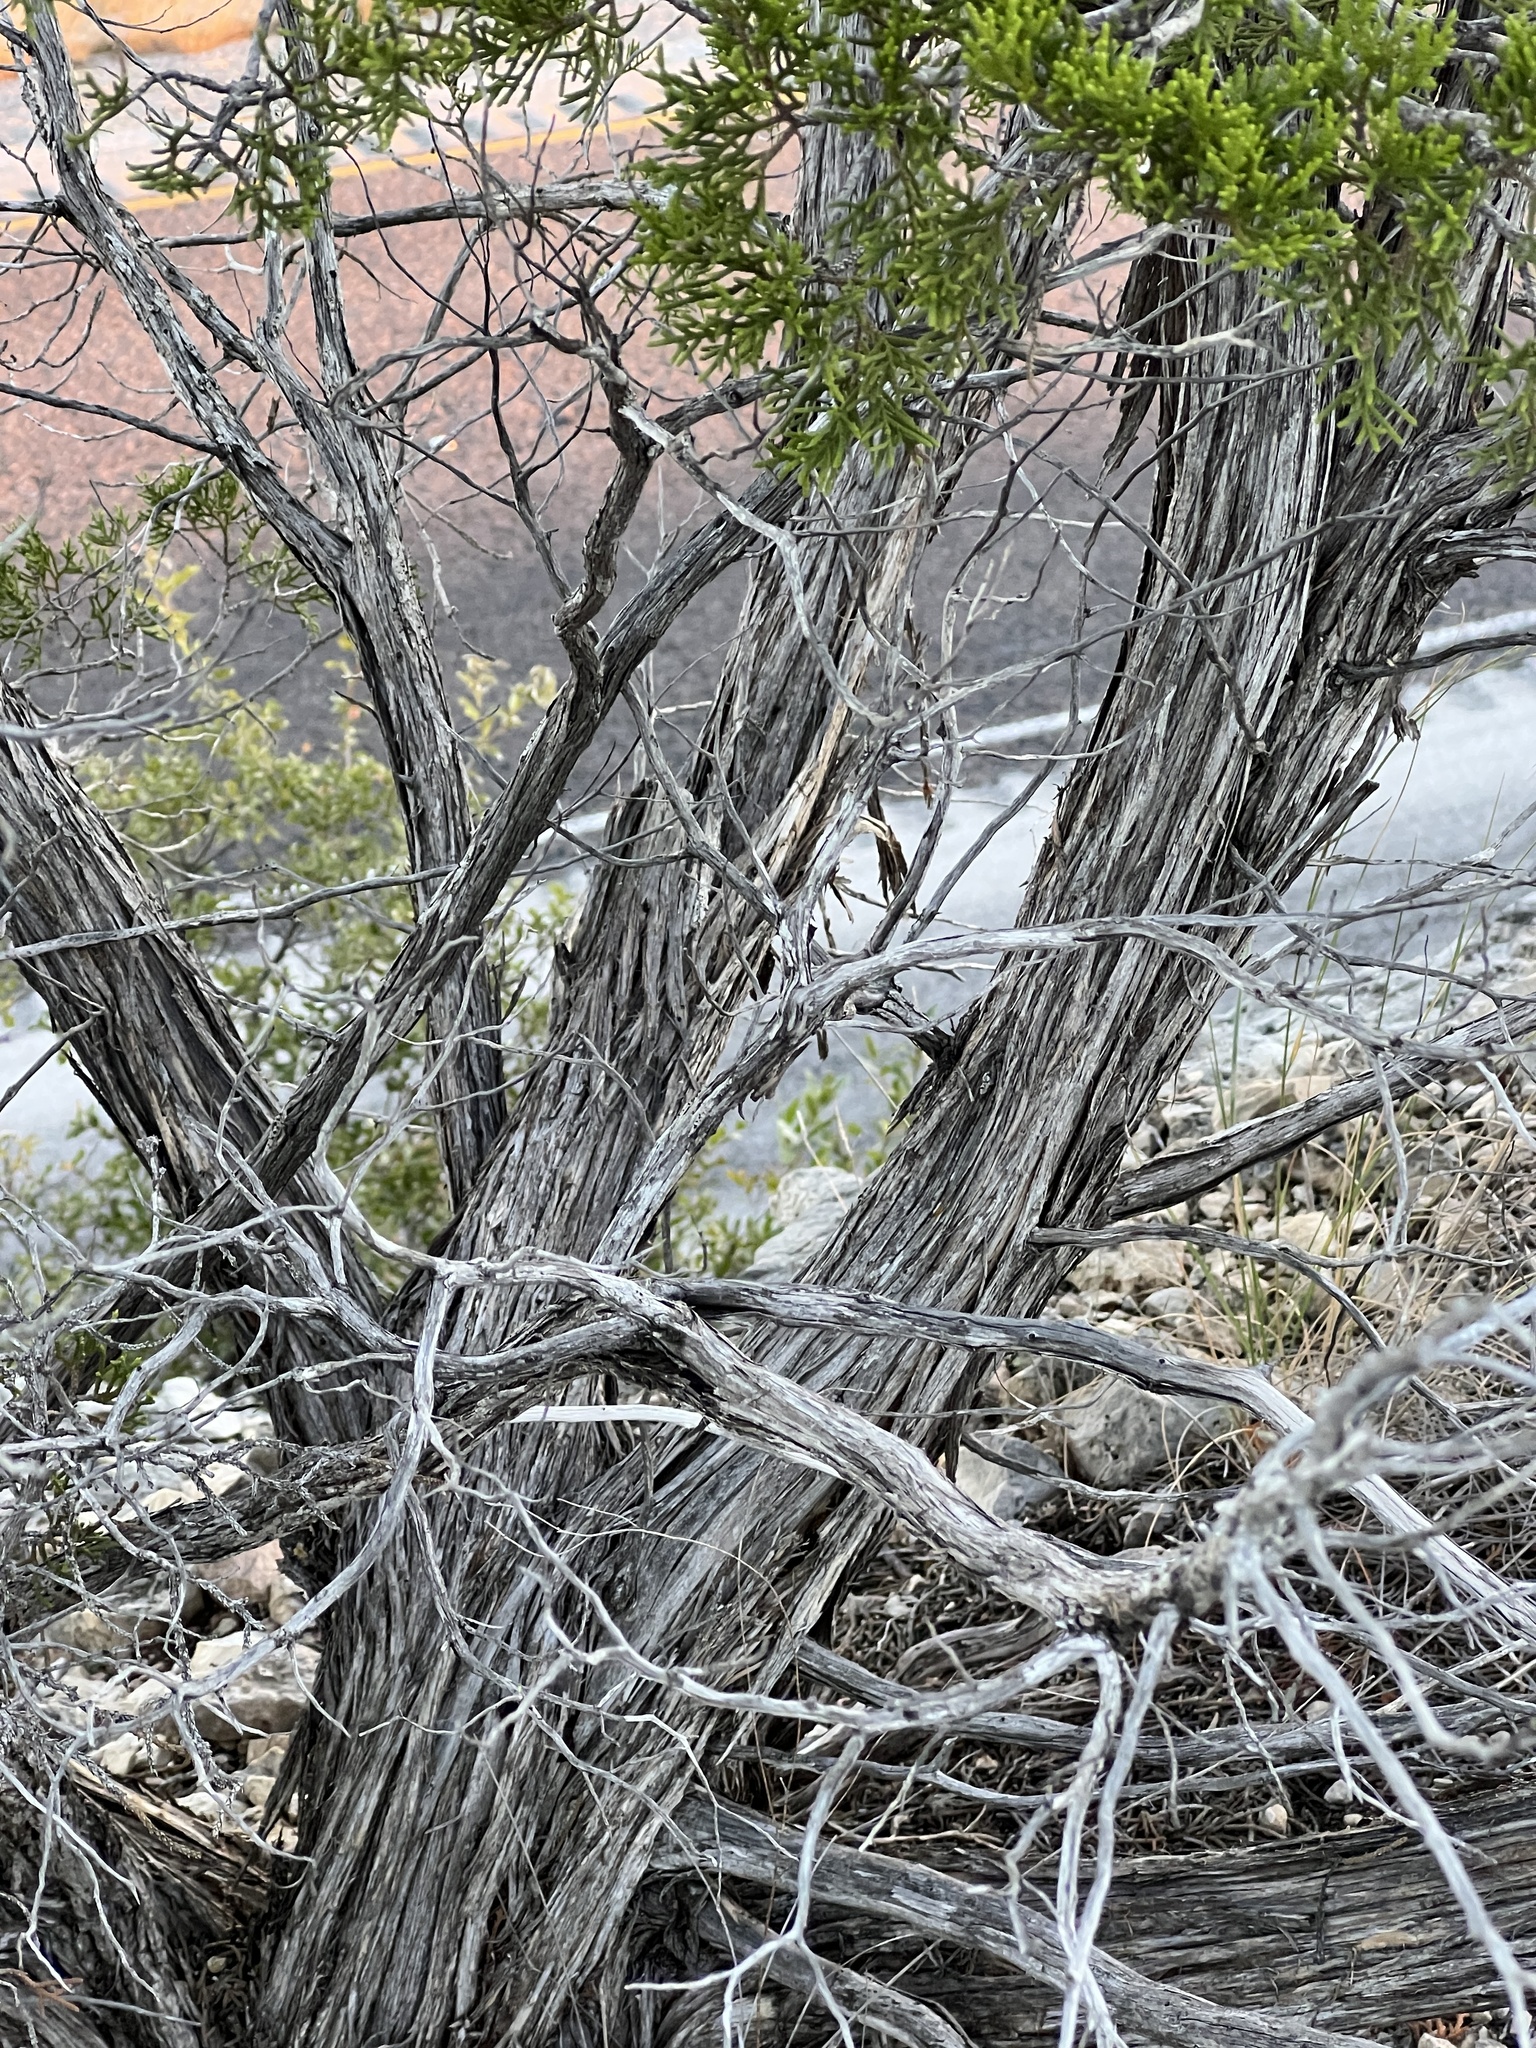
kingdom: Plantae
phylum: Tracheophyta
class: Pinopsida
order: Pinales
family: Cupressaceae
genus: Juniperus
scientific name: Juniperus ashei
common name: Mexican juniper
